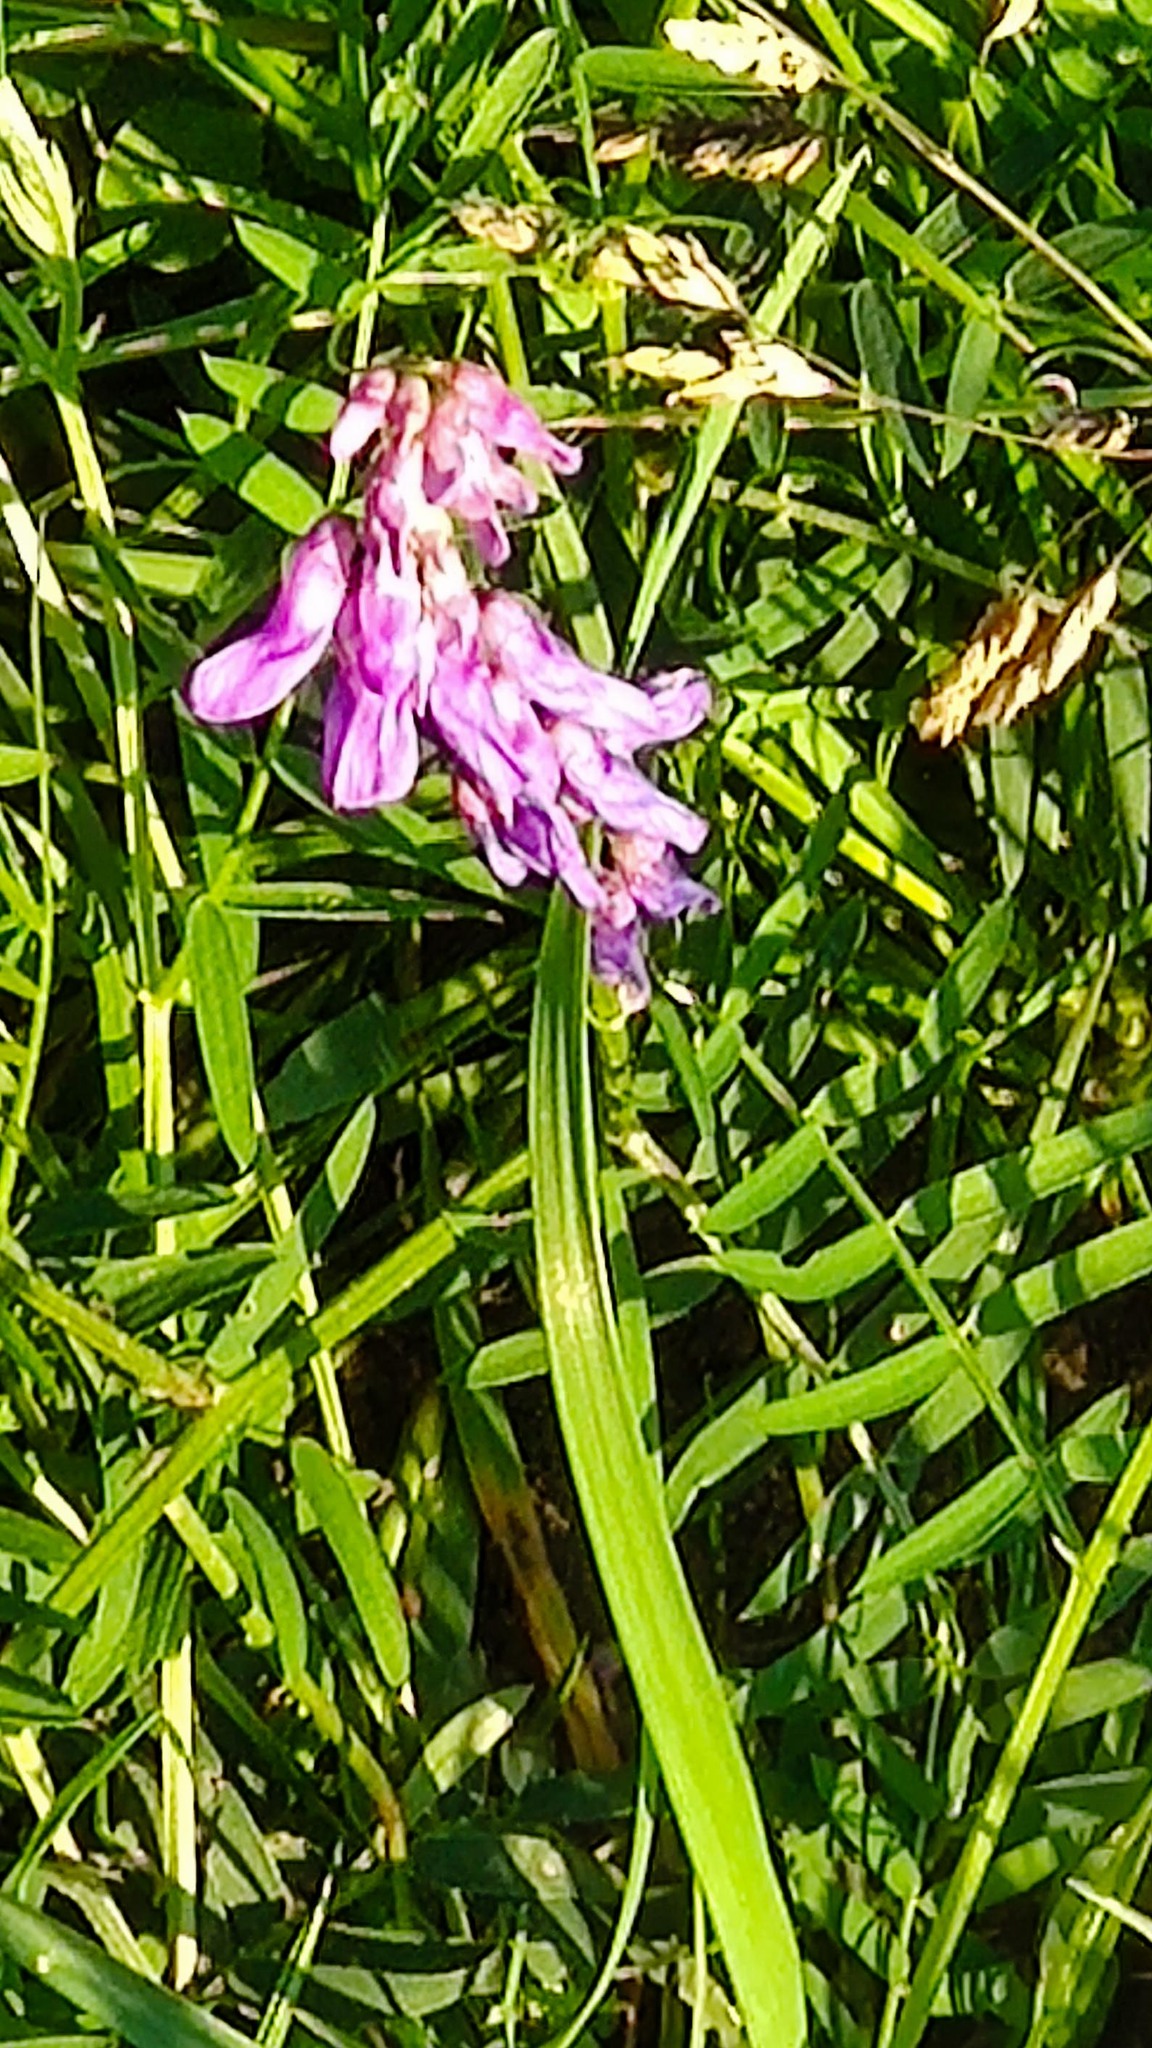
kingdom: Plantae
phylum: Tracheophyta
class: Magnoliopsida
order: Fabales
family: Fabaceae
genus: Vicia
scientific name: Vicia cracca
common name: Bird vetch
